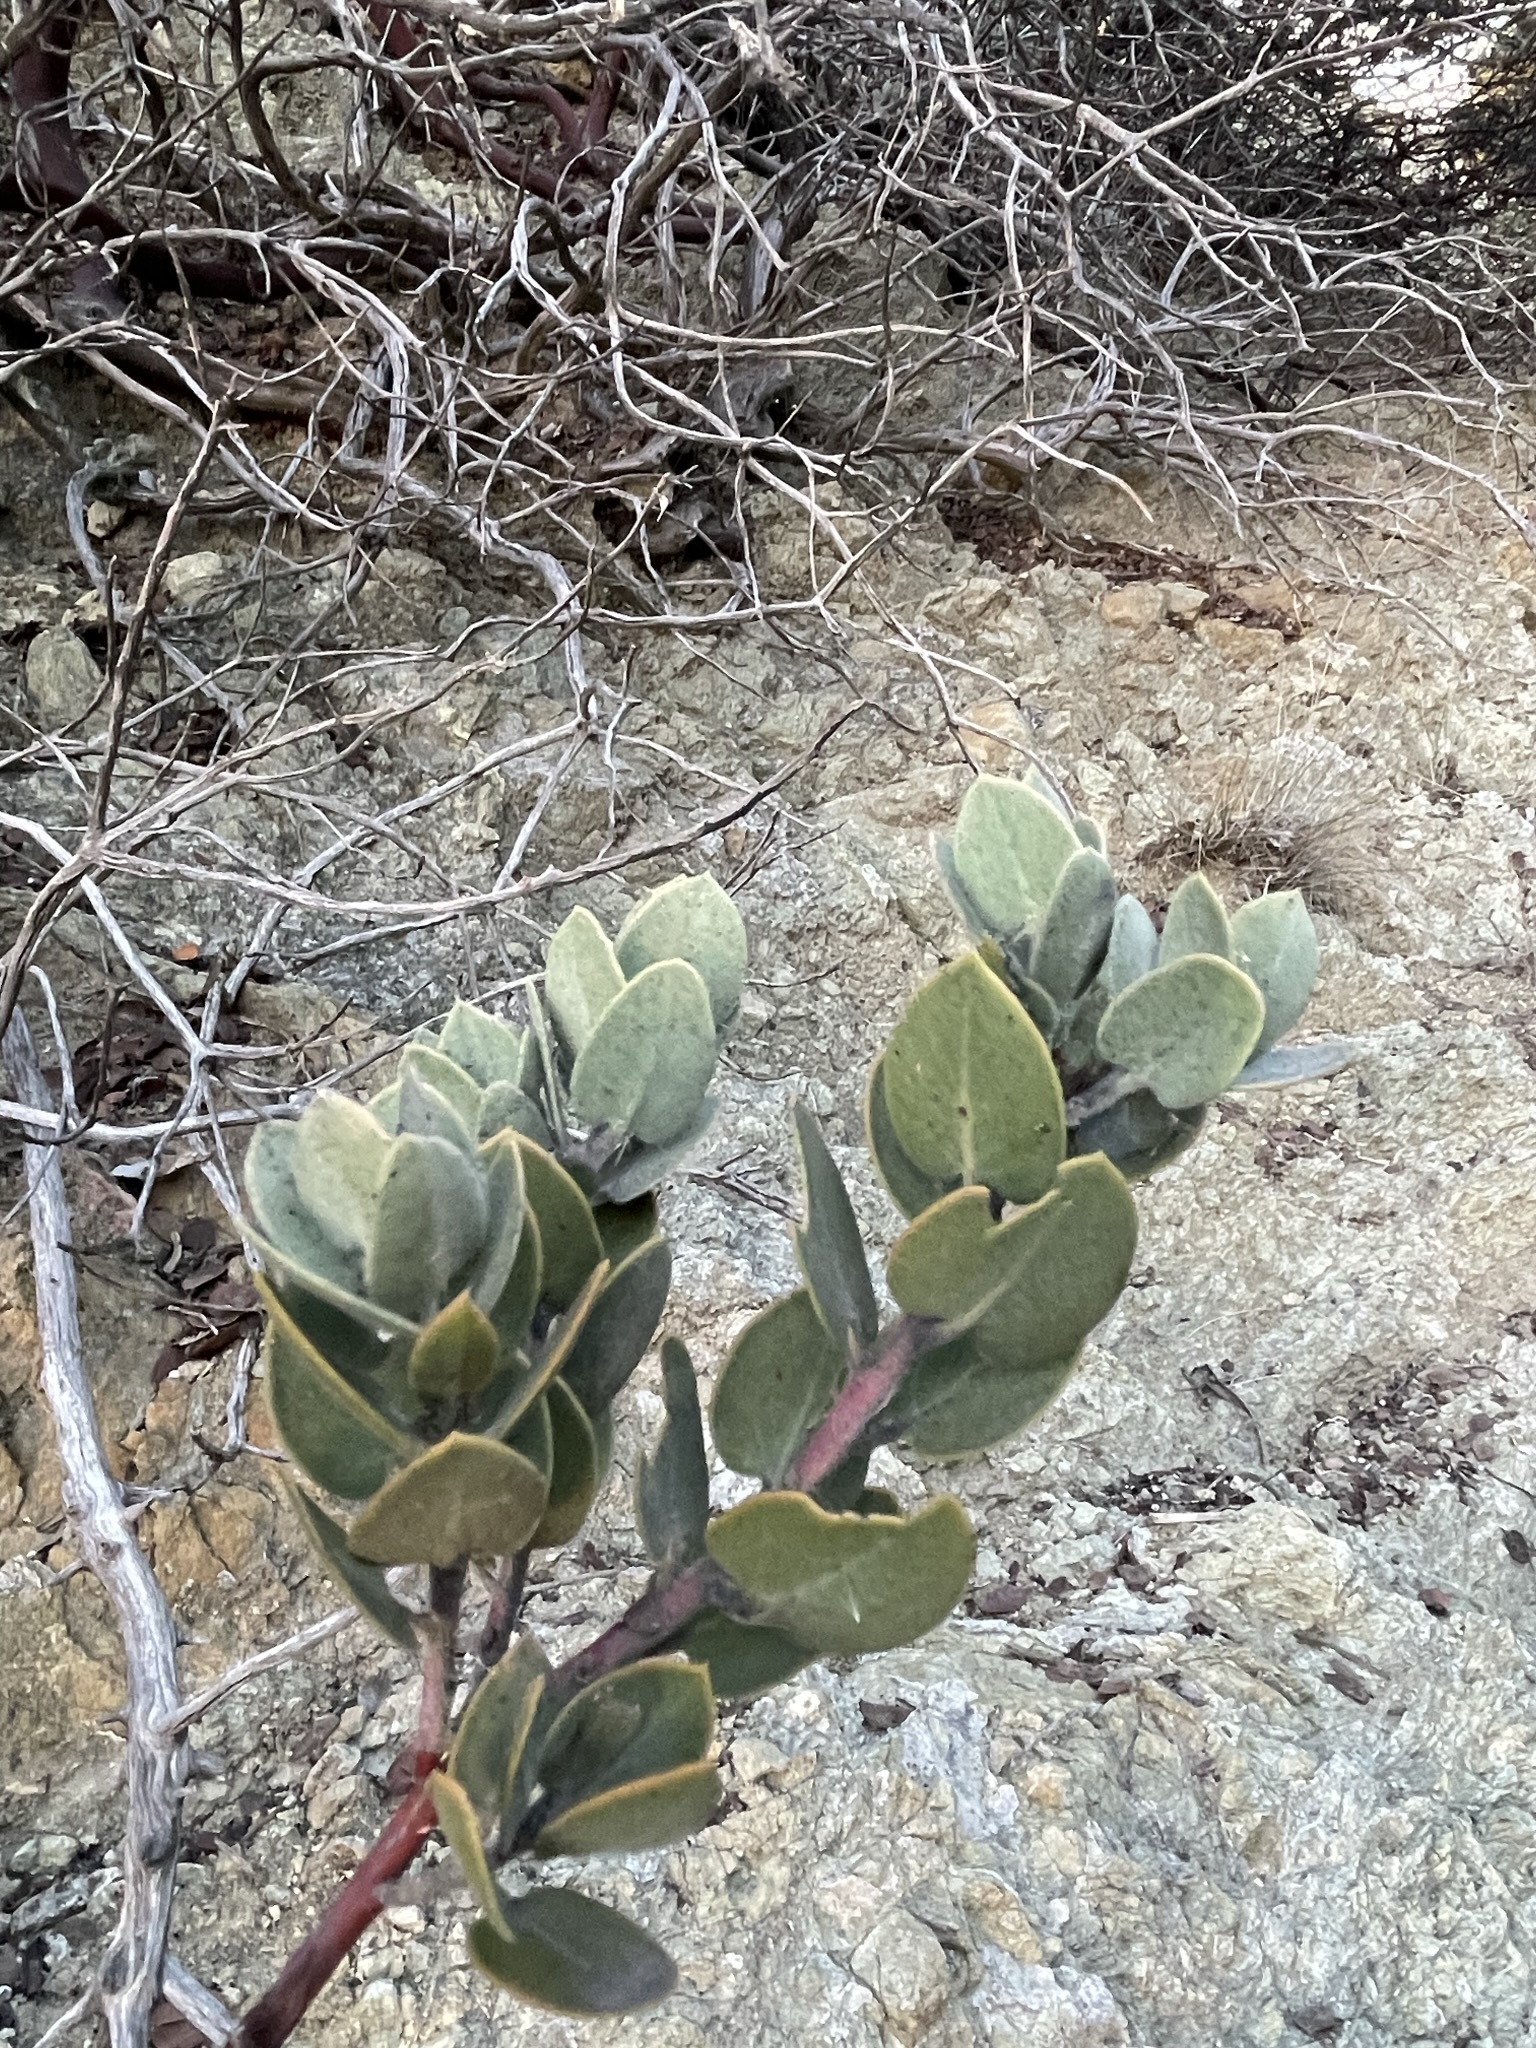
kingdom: Plantae
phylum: Tracheophyta
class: Magnoliopsida
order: Ericales
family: Ericaceae
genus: Arctostaphylos
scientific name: Arctostaphylos obispoensis
